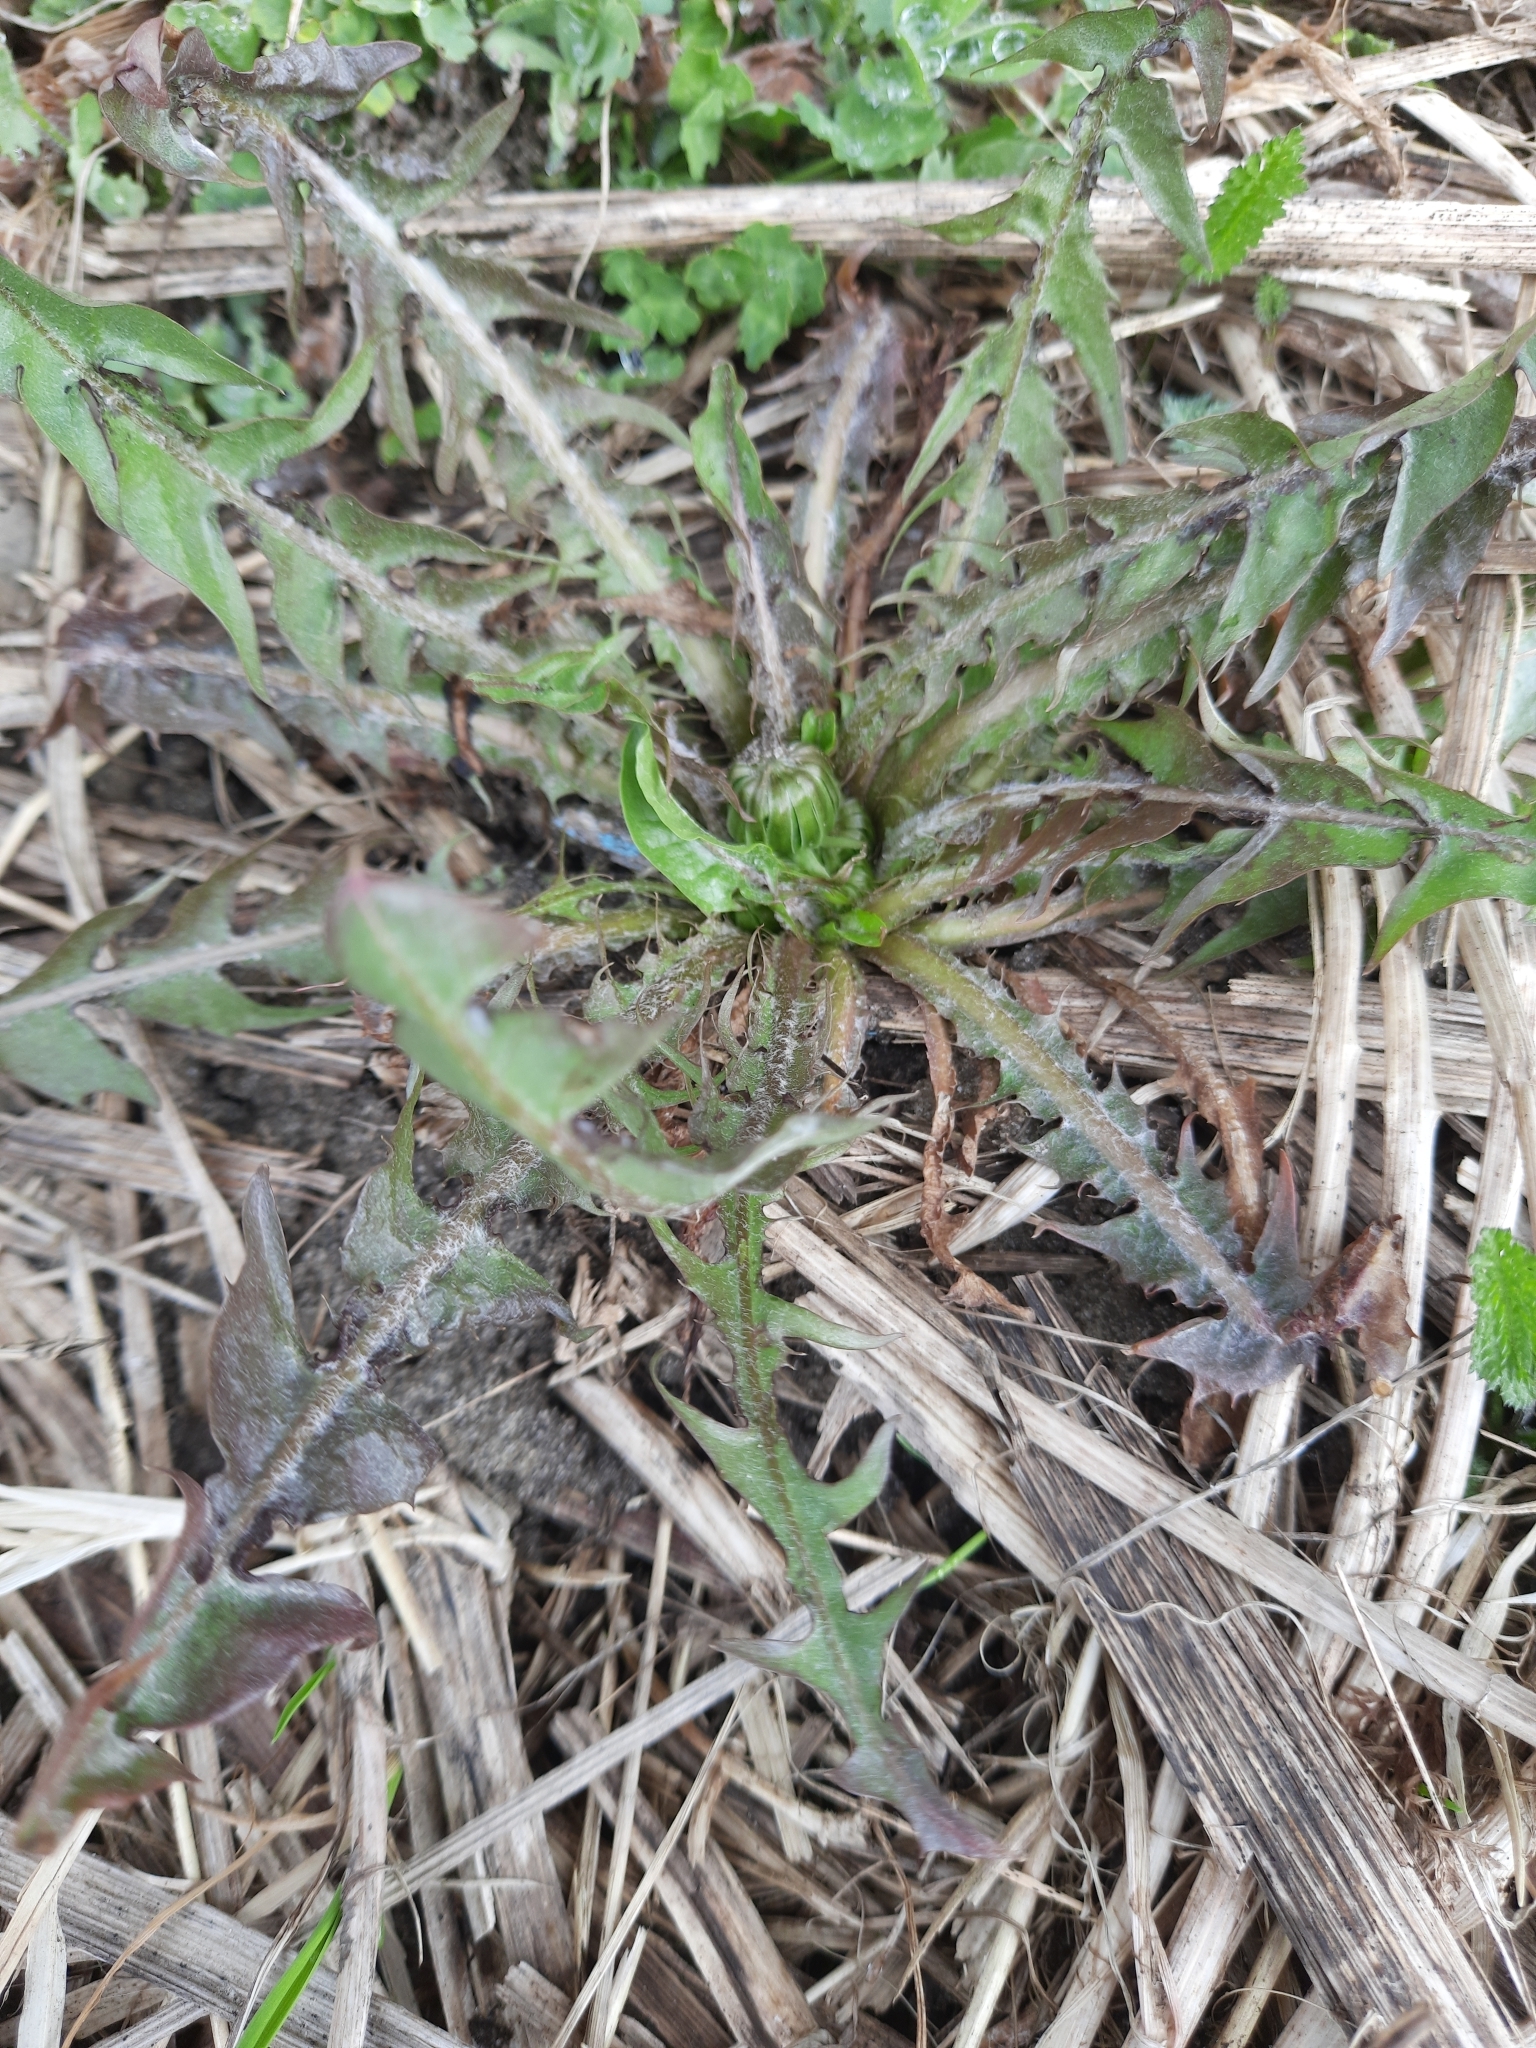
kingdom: Plantae
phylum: Tracheophyta
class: Magnoliopsida
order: Asterales
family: Asteraceae
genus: Taraxacum
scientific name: Taraxacum officinale
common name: Common dandelion
